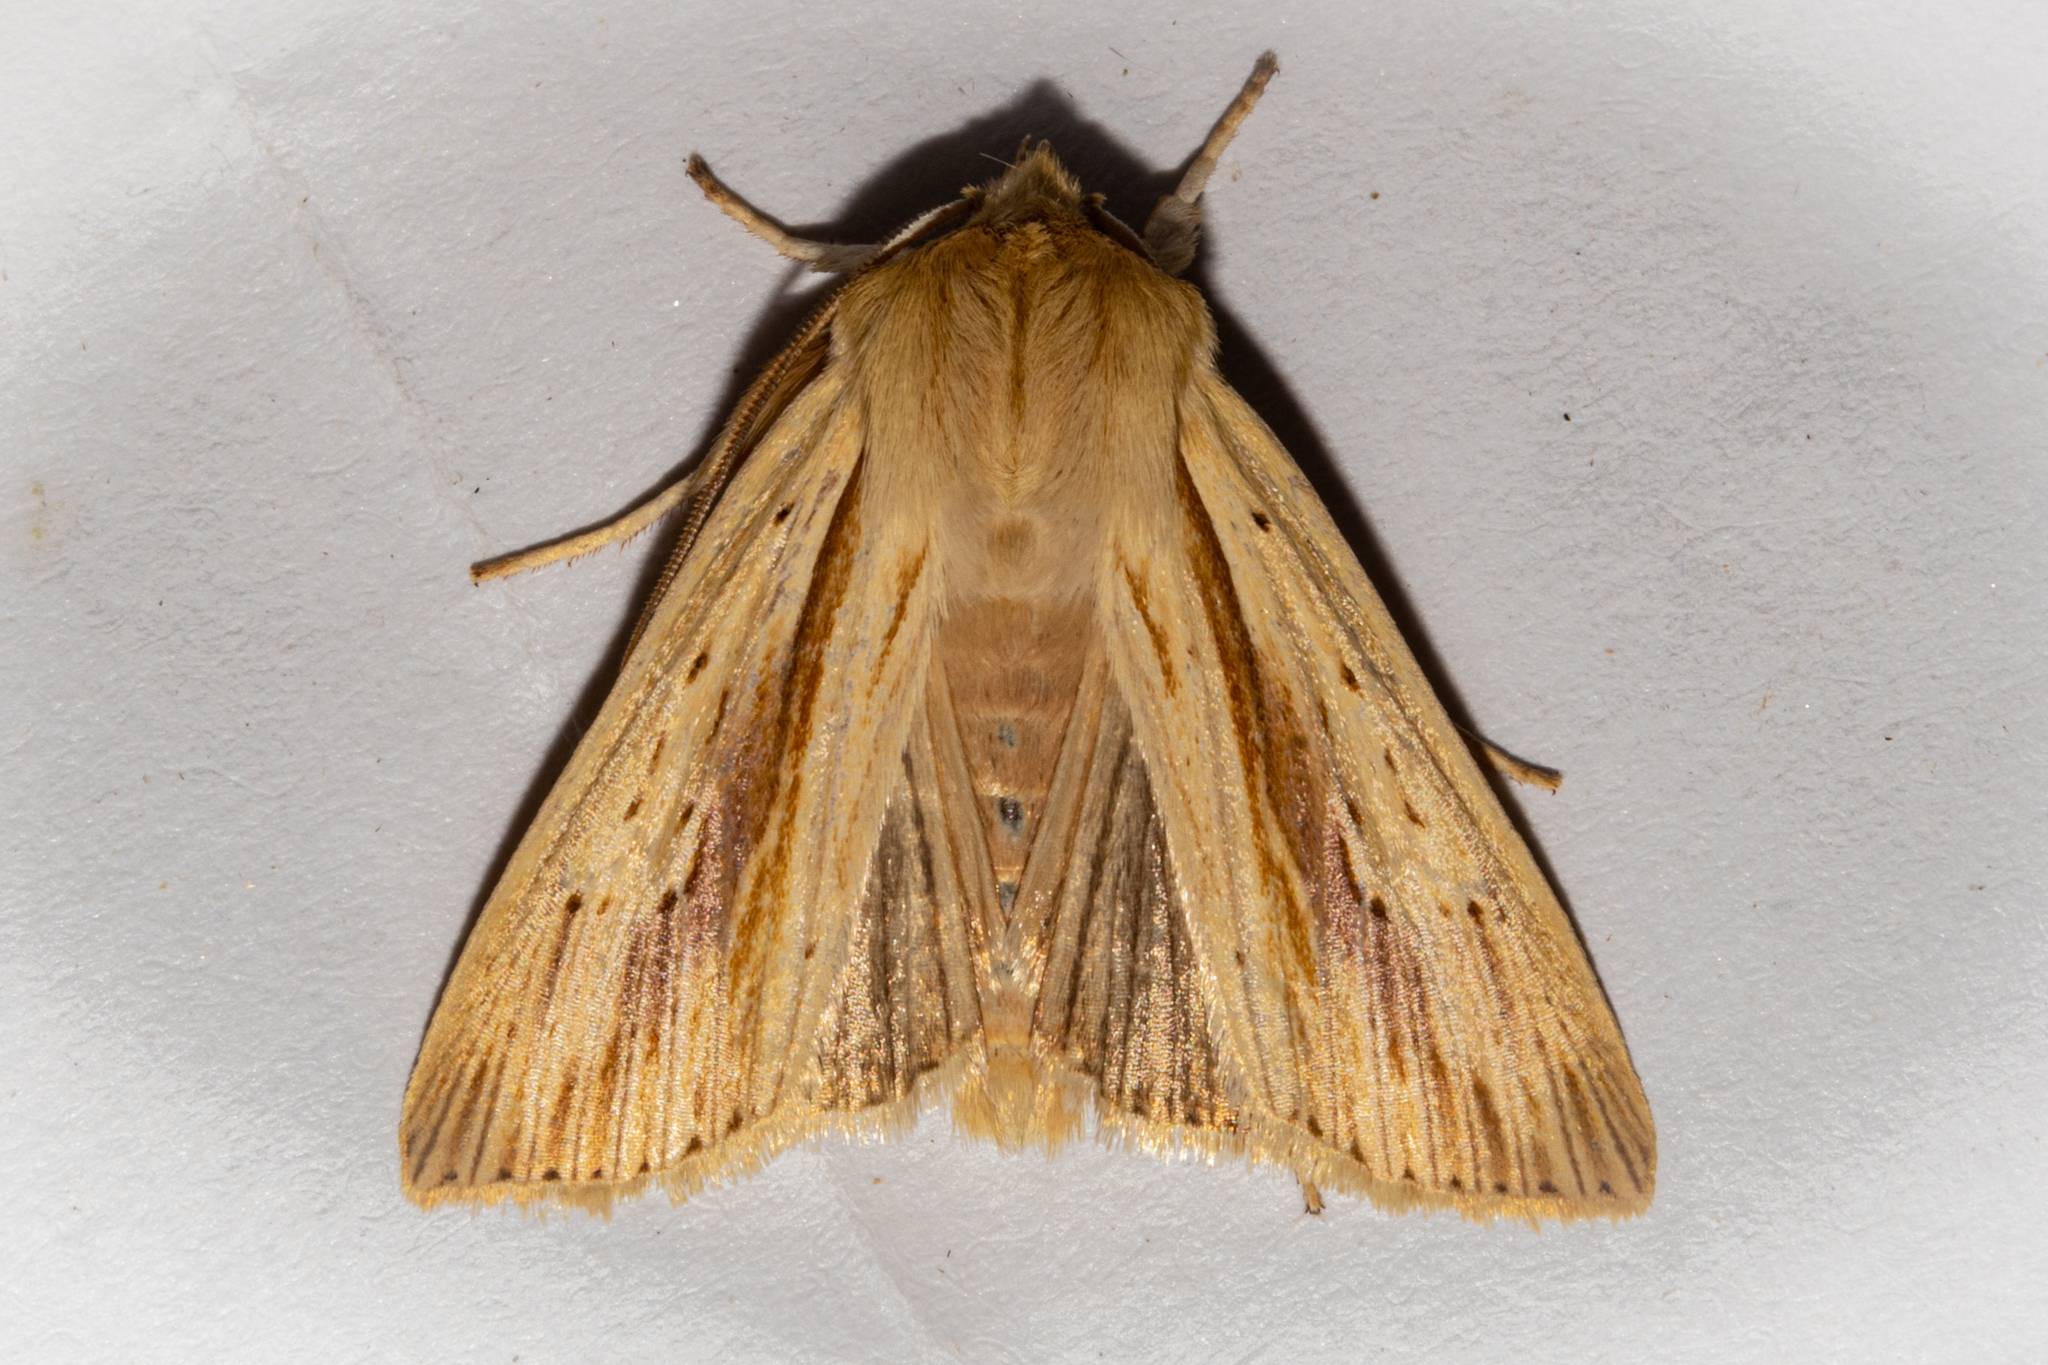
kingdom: Animalia
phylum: Arthropoda
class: Insecta
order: Lepidoptera
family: Noctuidae
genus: Ichneutica
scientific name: Ichneutica semivittata
